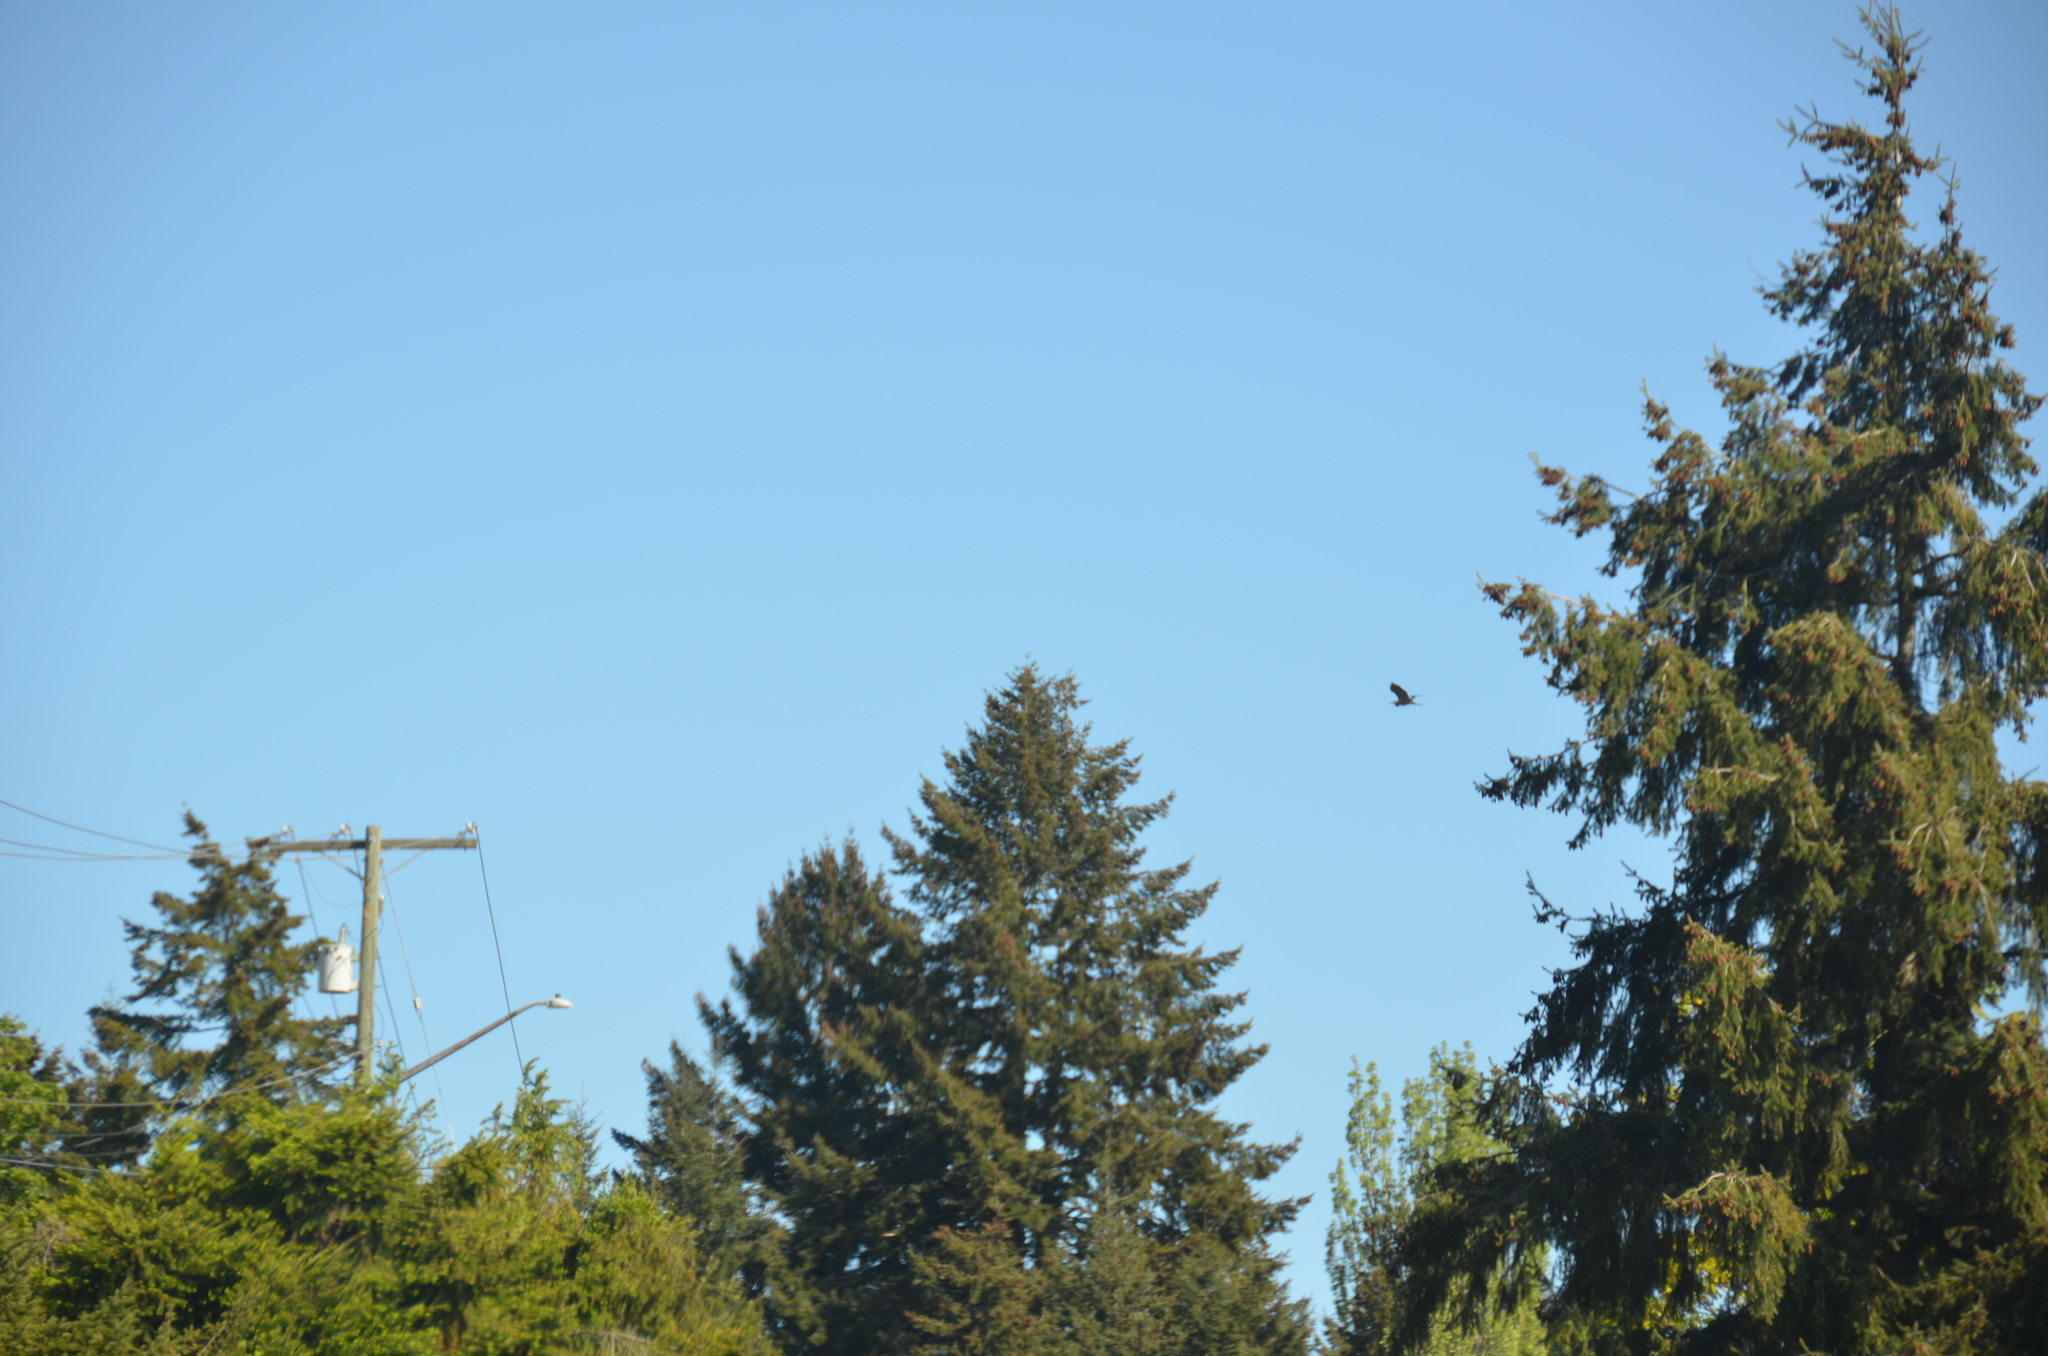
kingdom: Animalia
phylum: Chordata
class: Aves
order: Pelecaniformes
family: Ardeidae
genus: Ardea
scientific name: Ardea herodias
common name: Great blue heron
